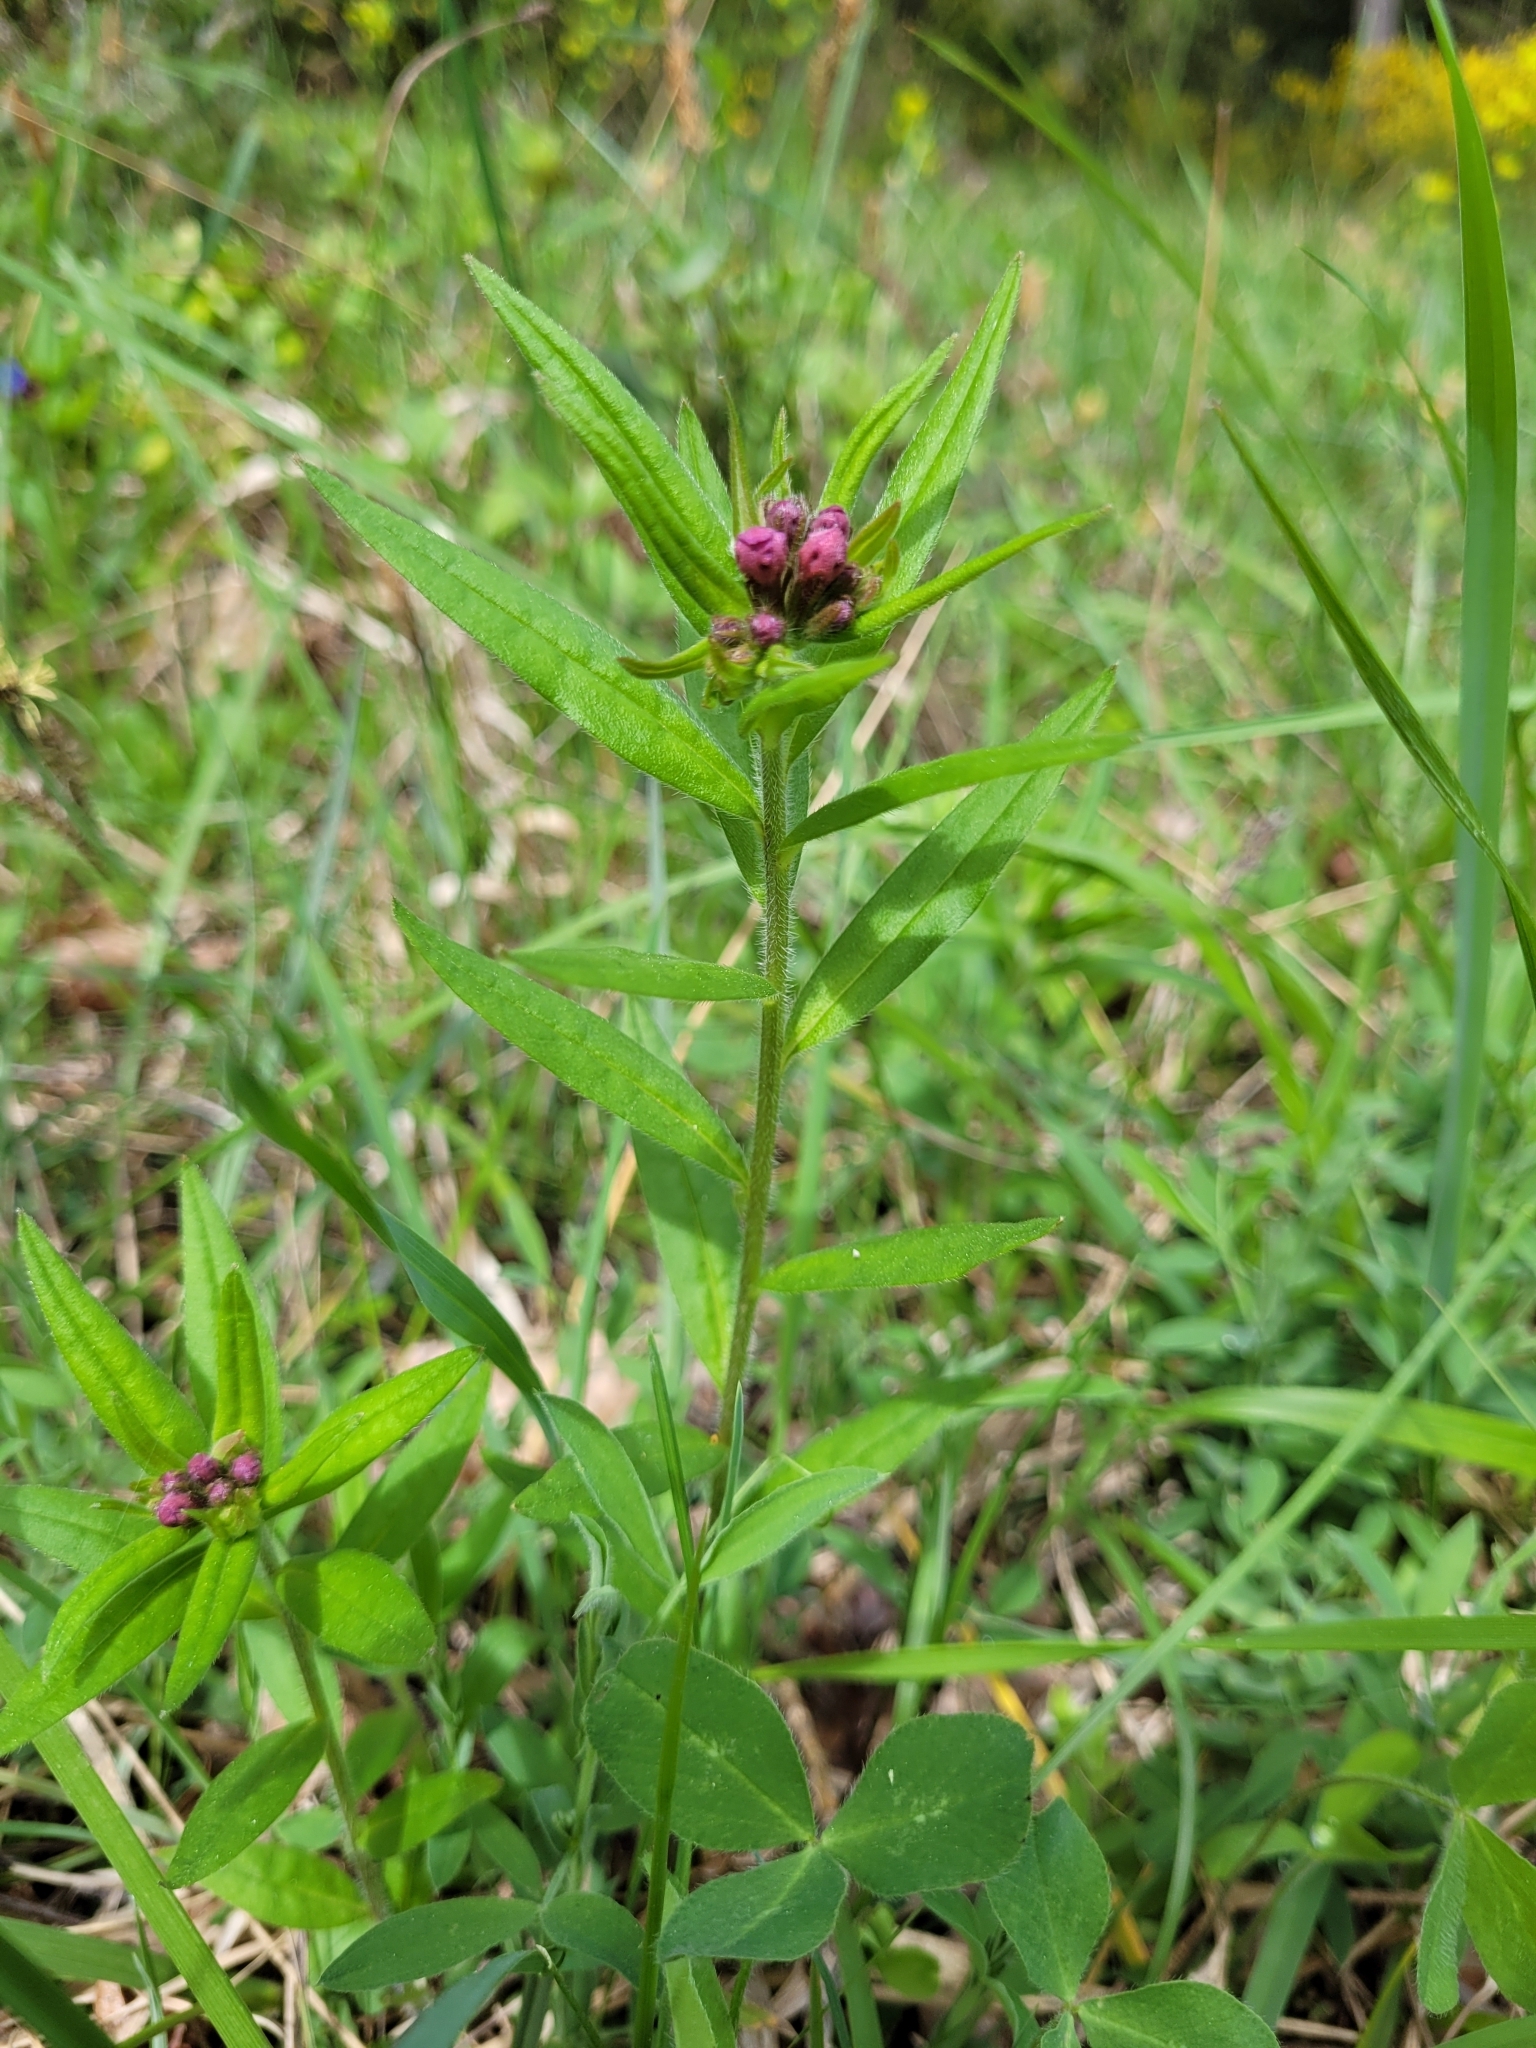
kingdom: Plantae
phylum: Tracheophyta
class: Magnoliopsida
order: Boraginales
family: Boraginaceae
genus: Aegonychon
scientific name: Aegonychon purpurocaeruleum
